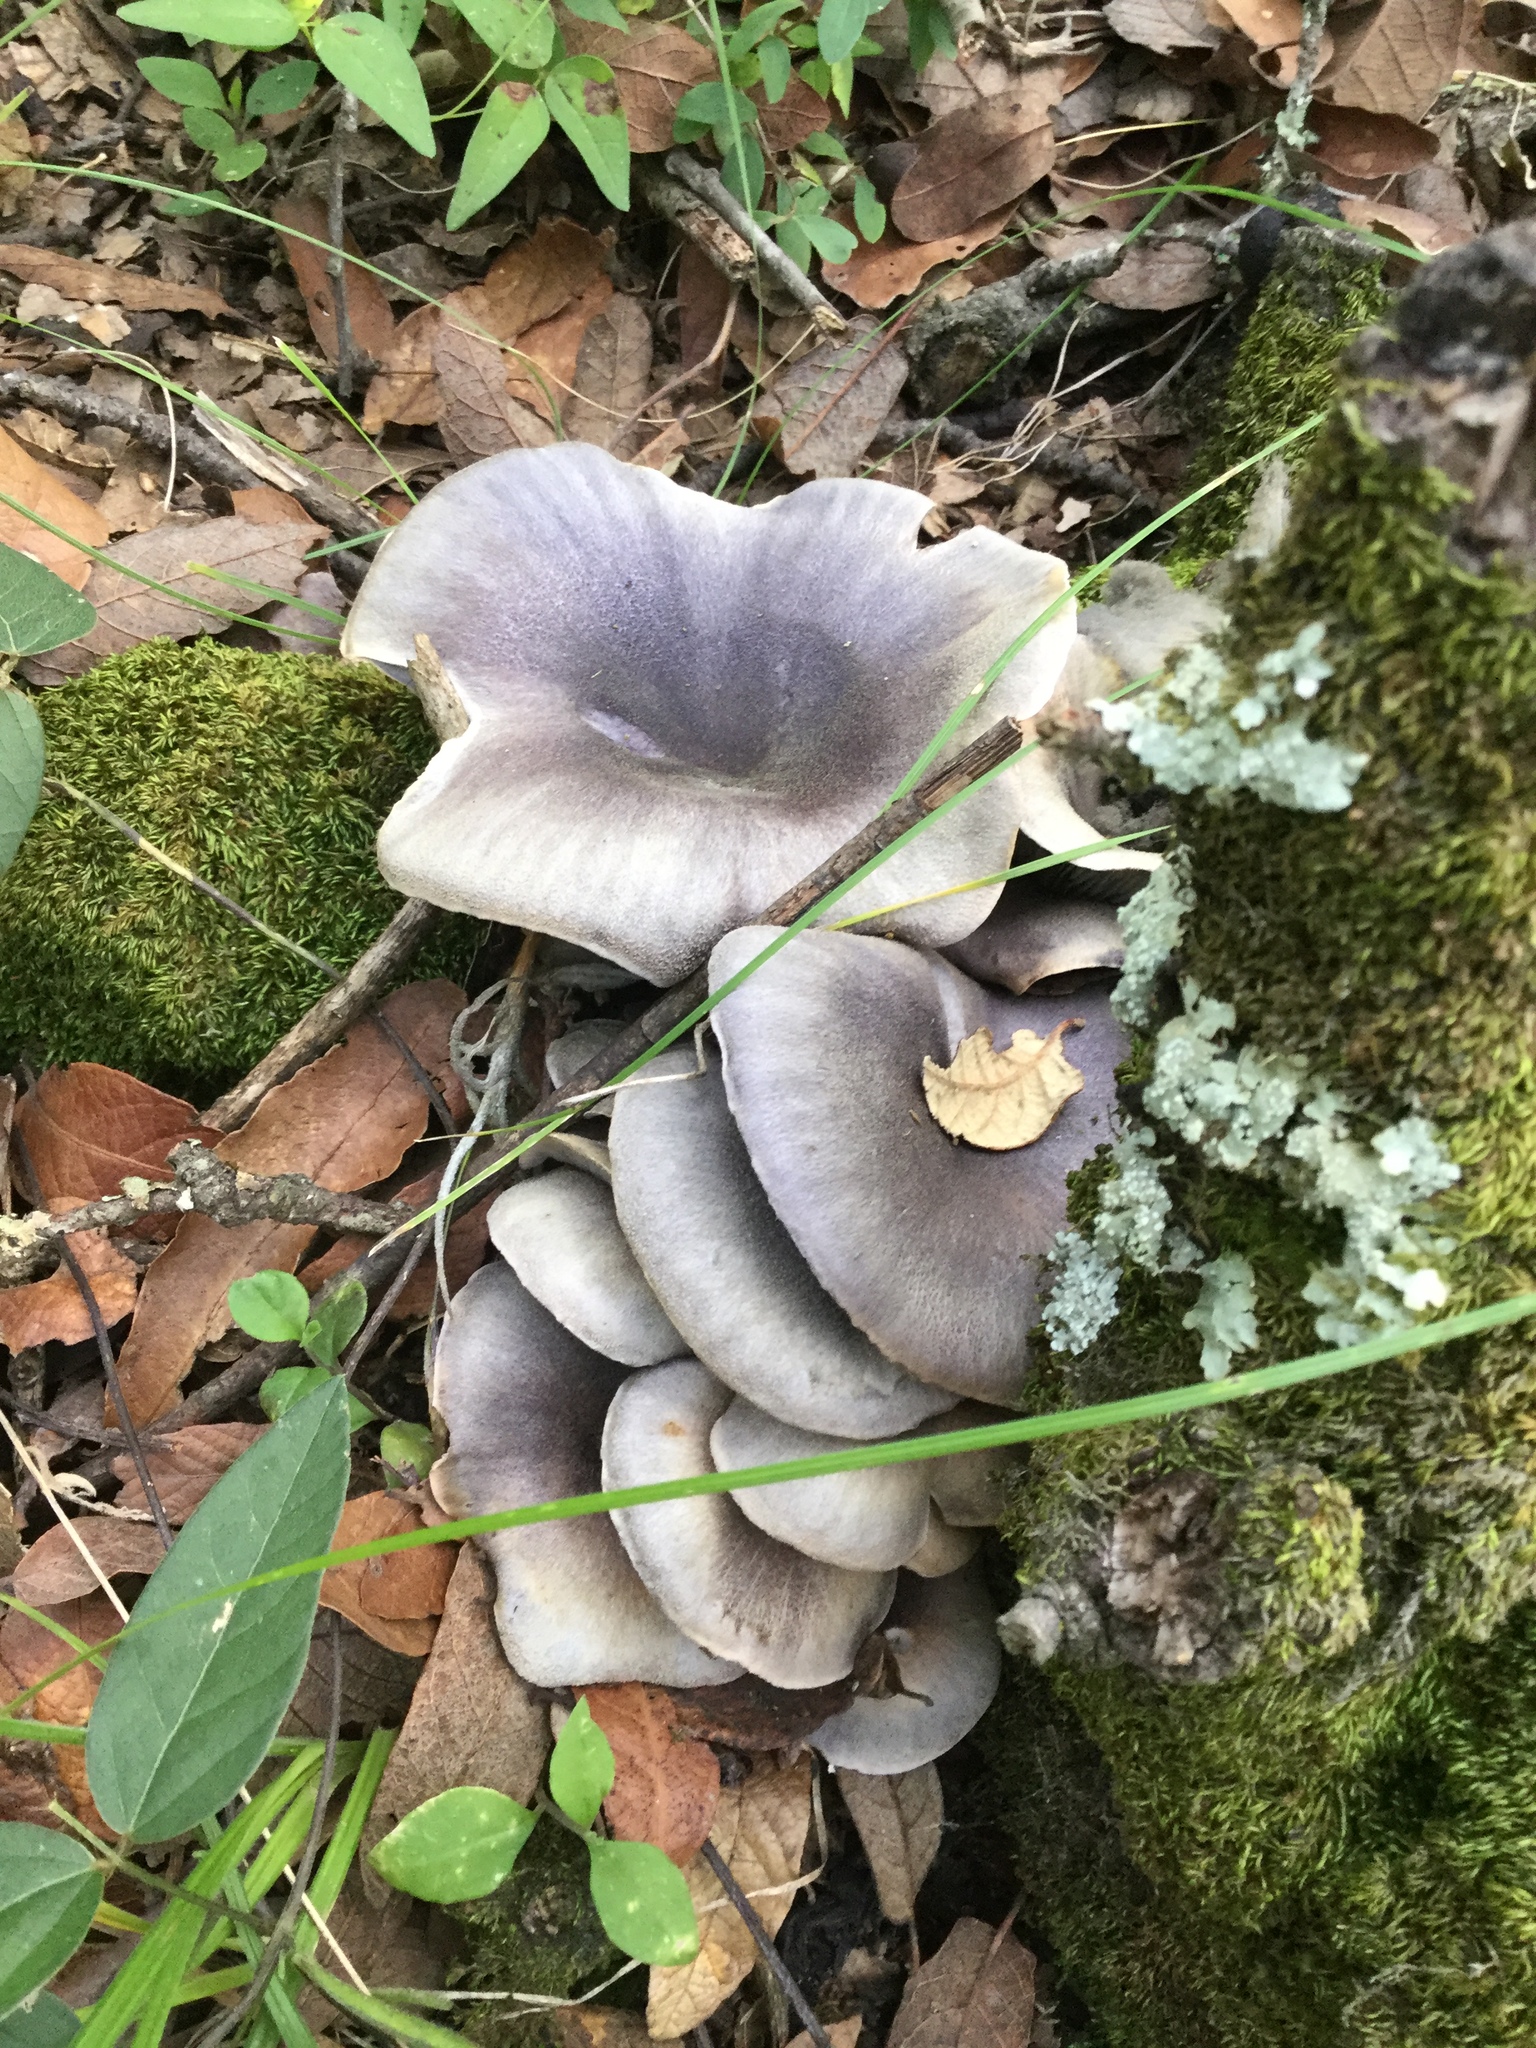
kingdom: Fungi
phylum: Basidiomycota
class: Agaricomycetes
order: Agaricales
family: Omphalotaceae
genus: Omphalotus
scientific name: Omphalotus mexicanus
